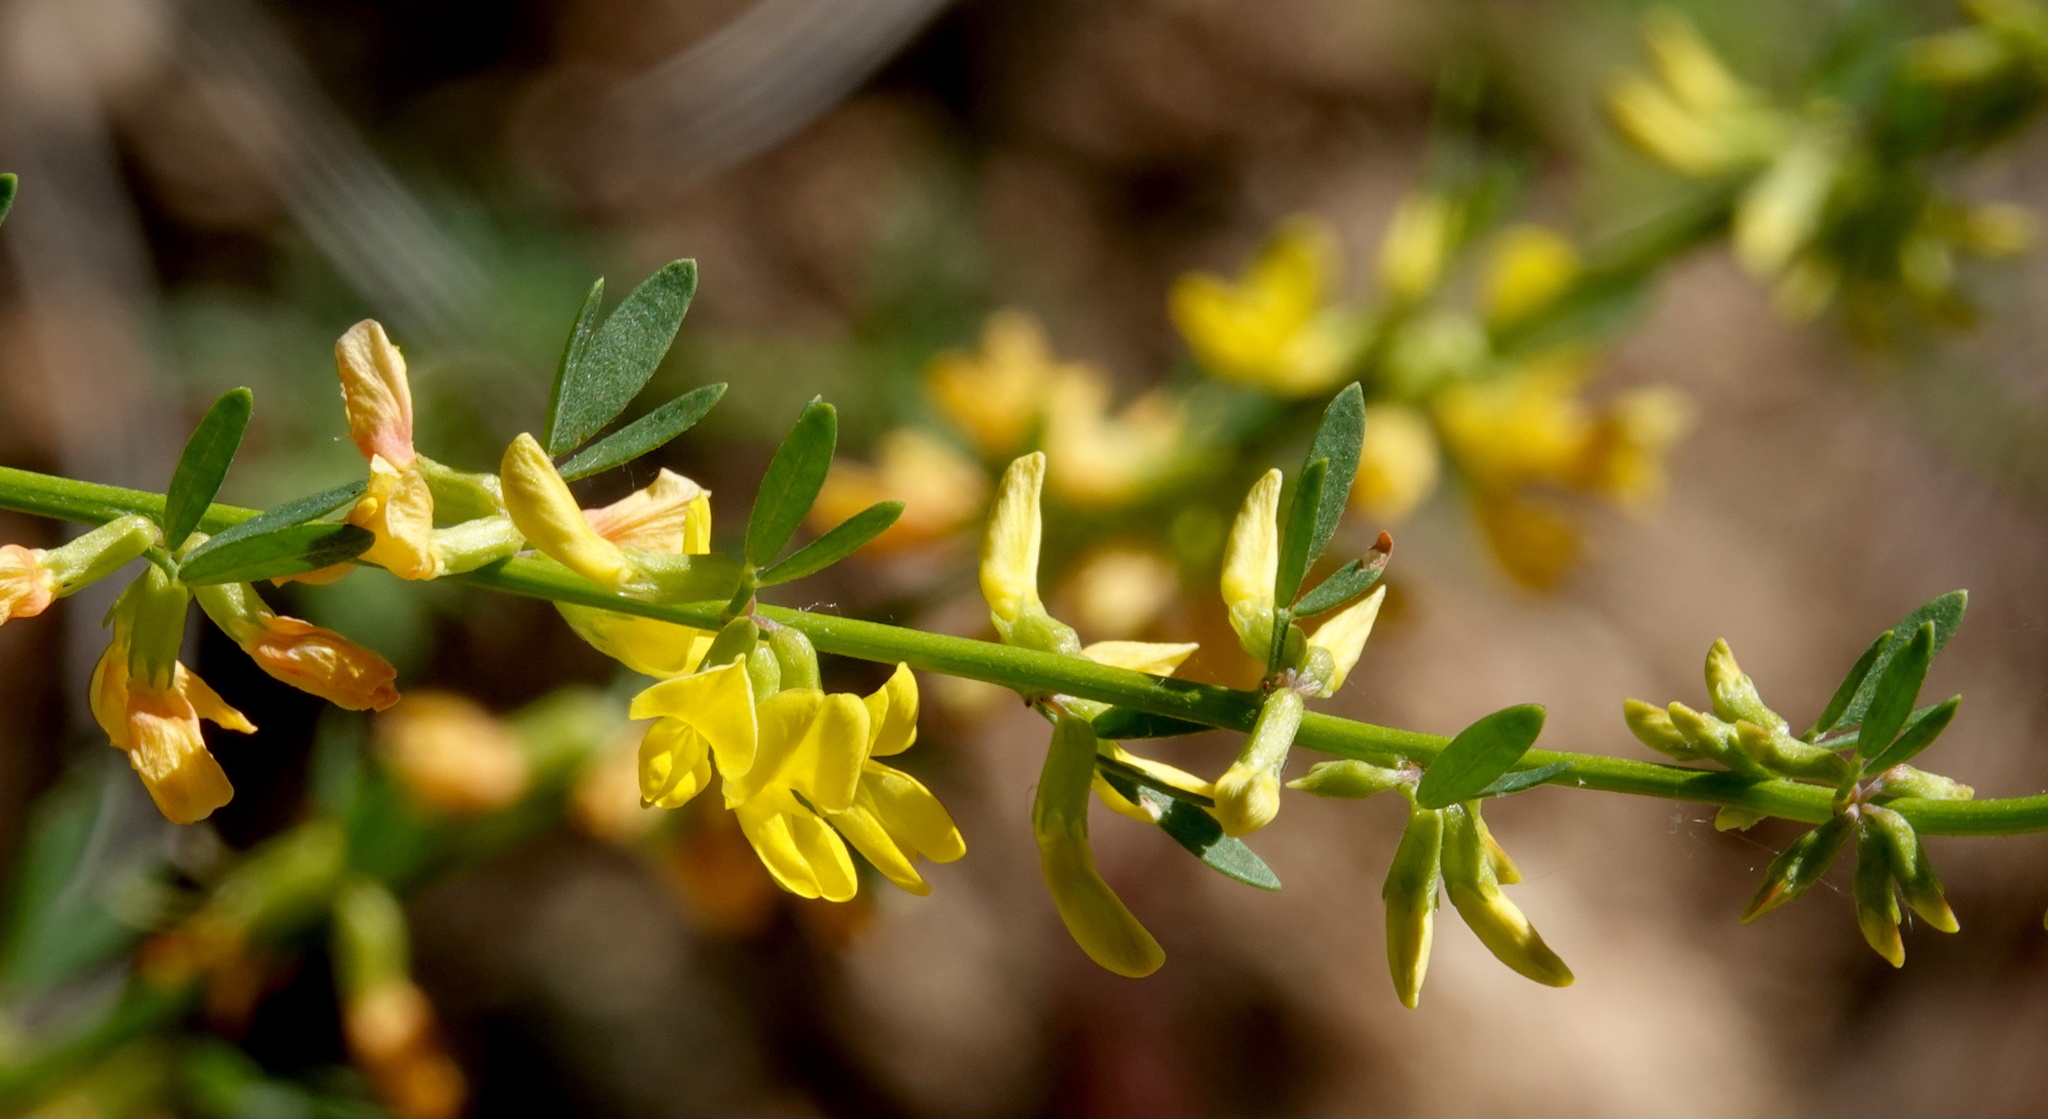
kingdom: Plantae
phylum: Tracheophyta
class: Magnoliopsida
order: Fabales
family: Fabaceae
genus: Acmispon
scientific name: Acmispon glaber
